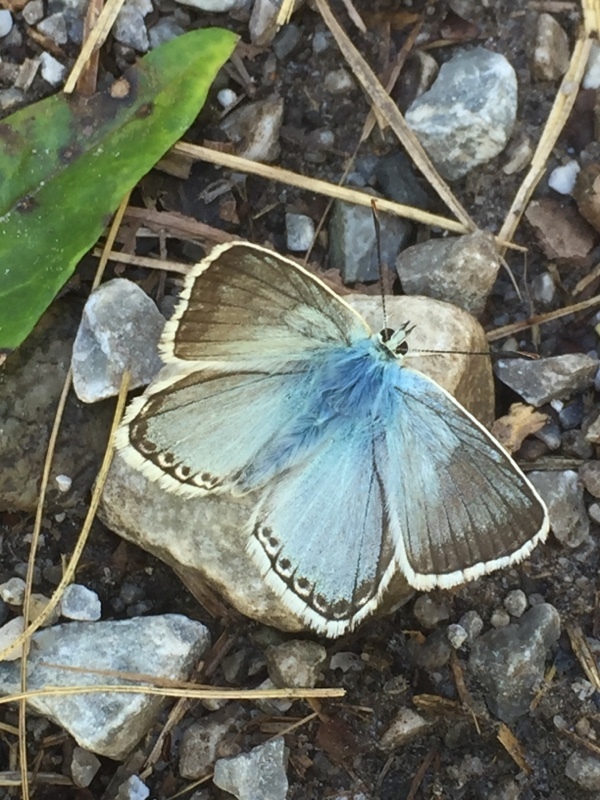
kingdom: Animalia
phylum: Arthropoda
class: Insecta
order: Lepidoptera
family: Lycaenidae
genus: Lysandra
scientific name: Lysandra coridon
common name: Chalkhill blue
